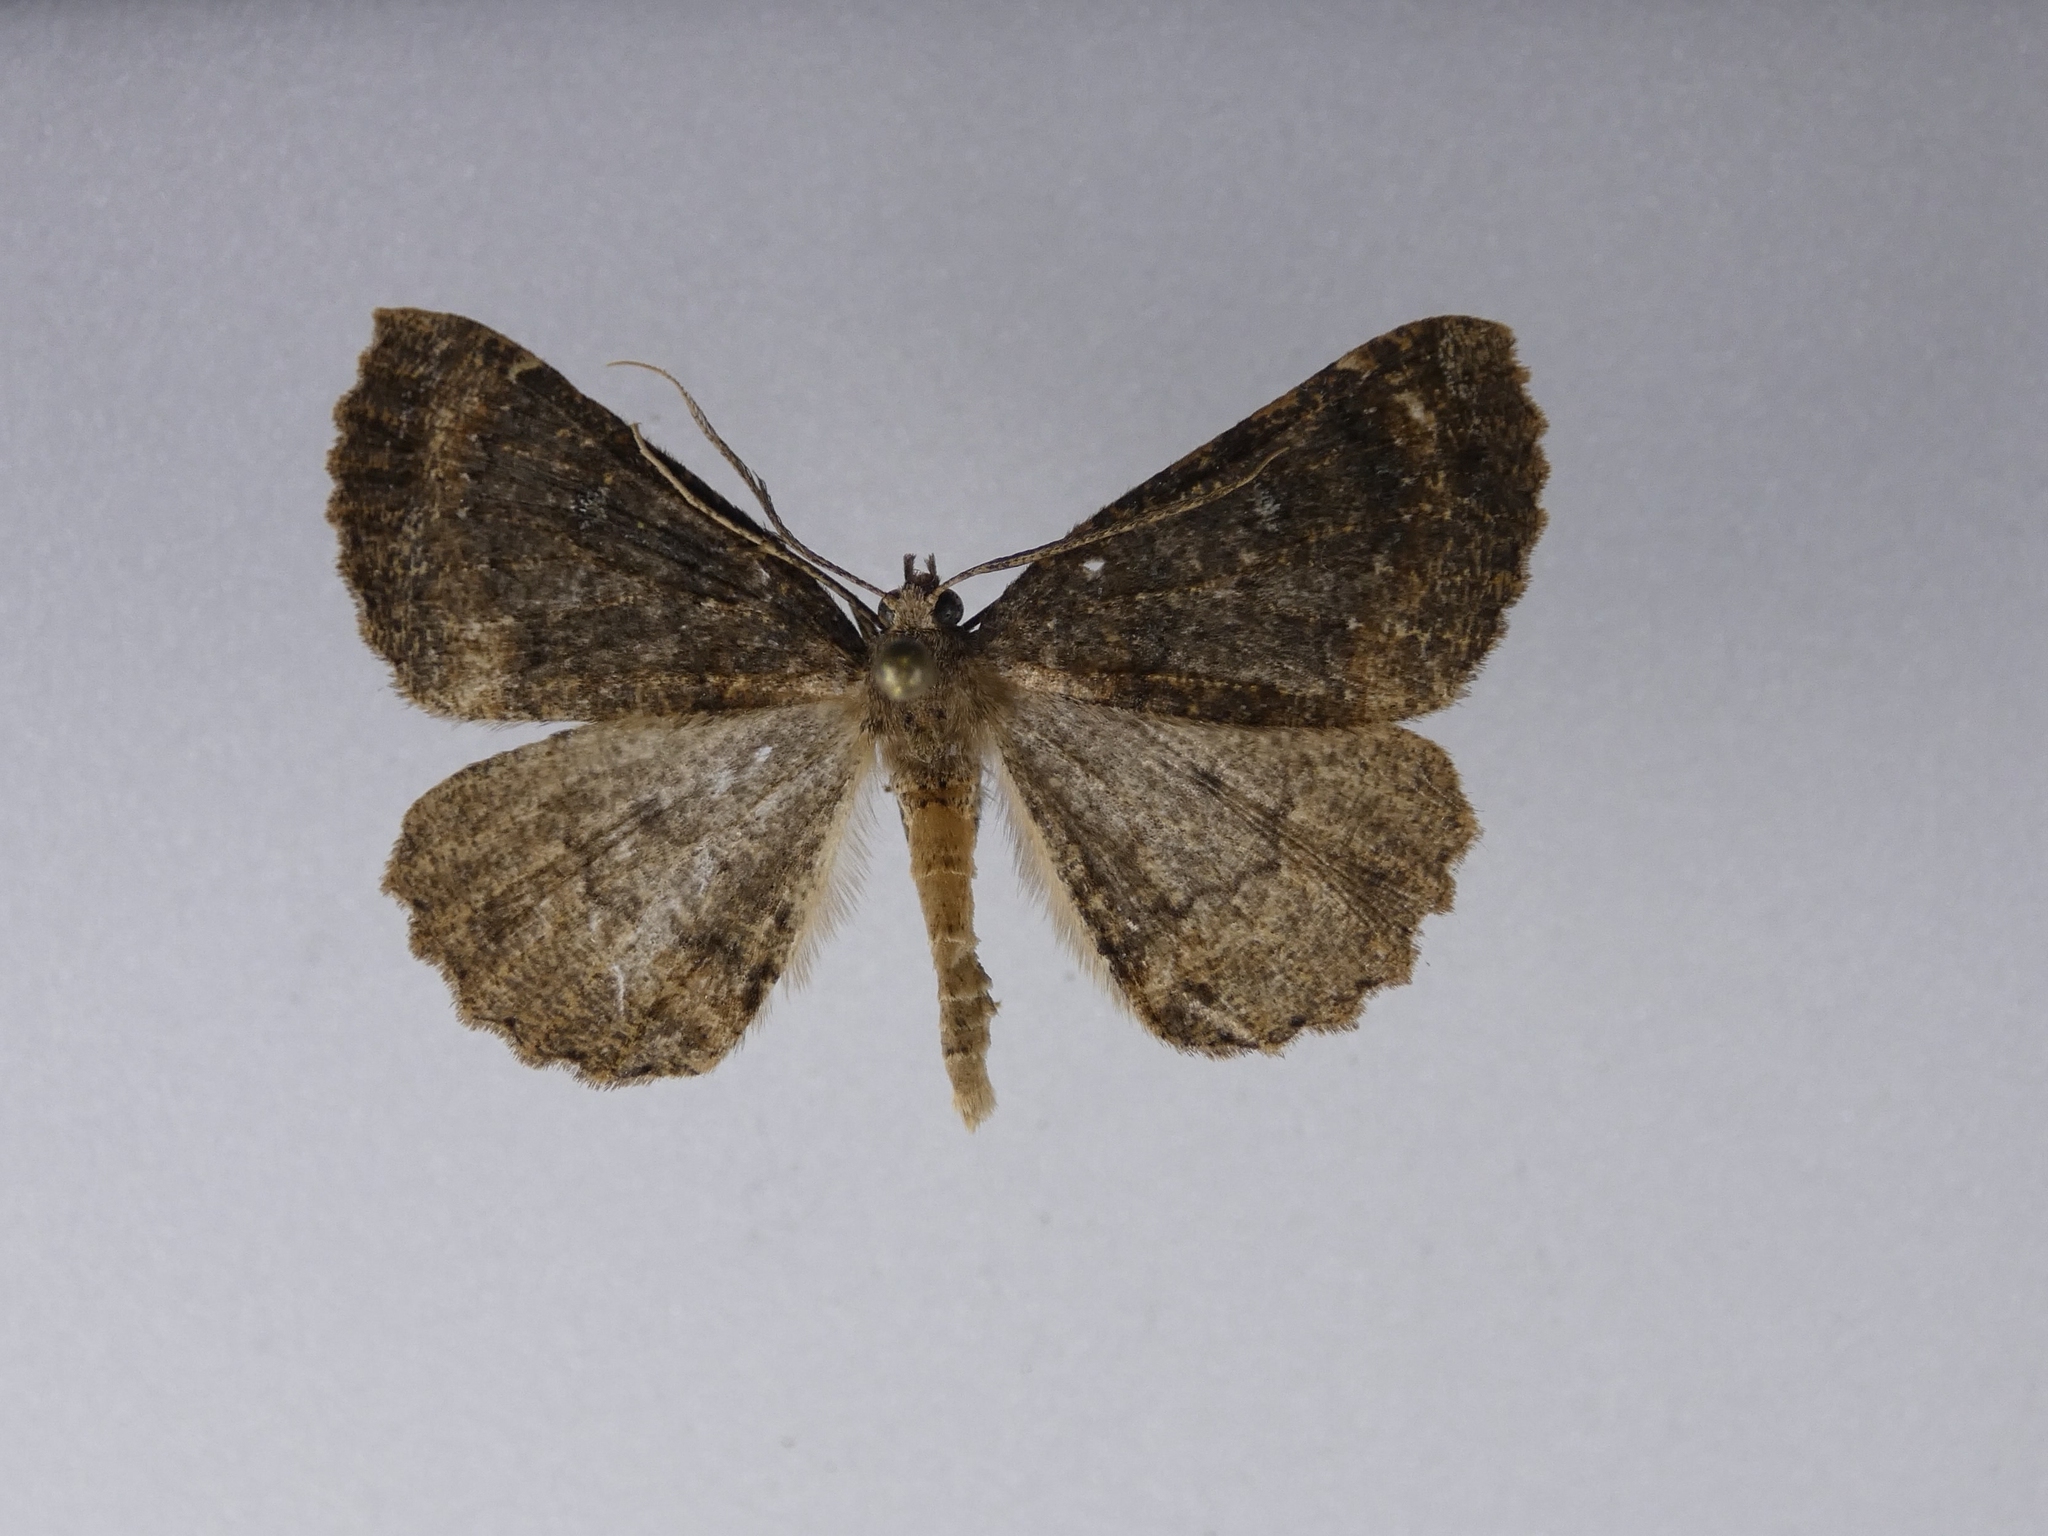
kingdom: Animalia
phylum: Arthropoda
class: Insecta
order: Lepidoptera
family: Geometridae
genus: Cleora
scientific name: Cleora scriptaria
